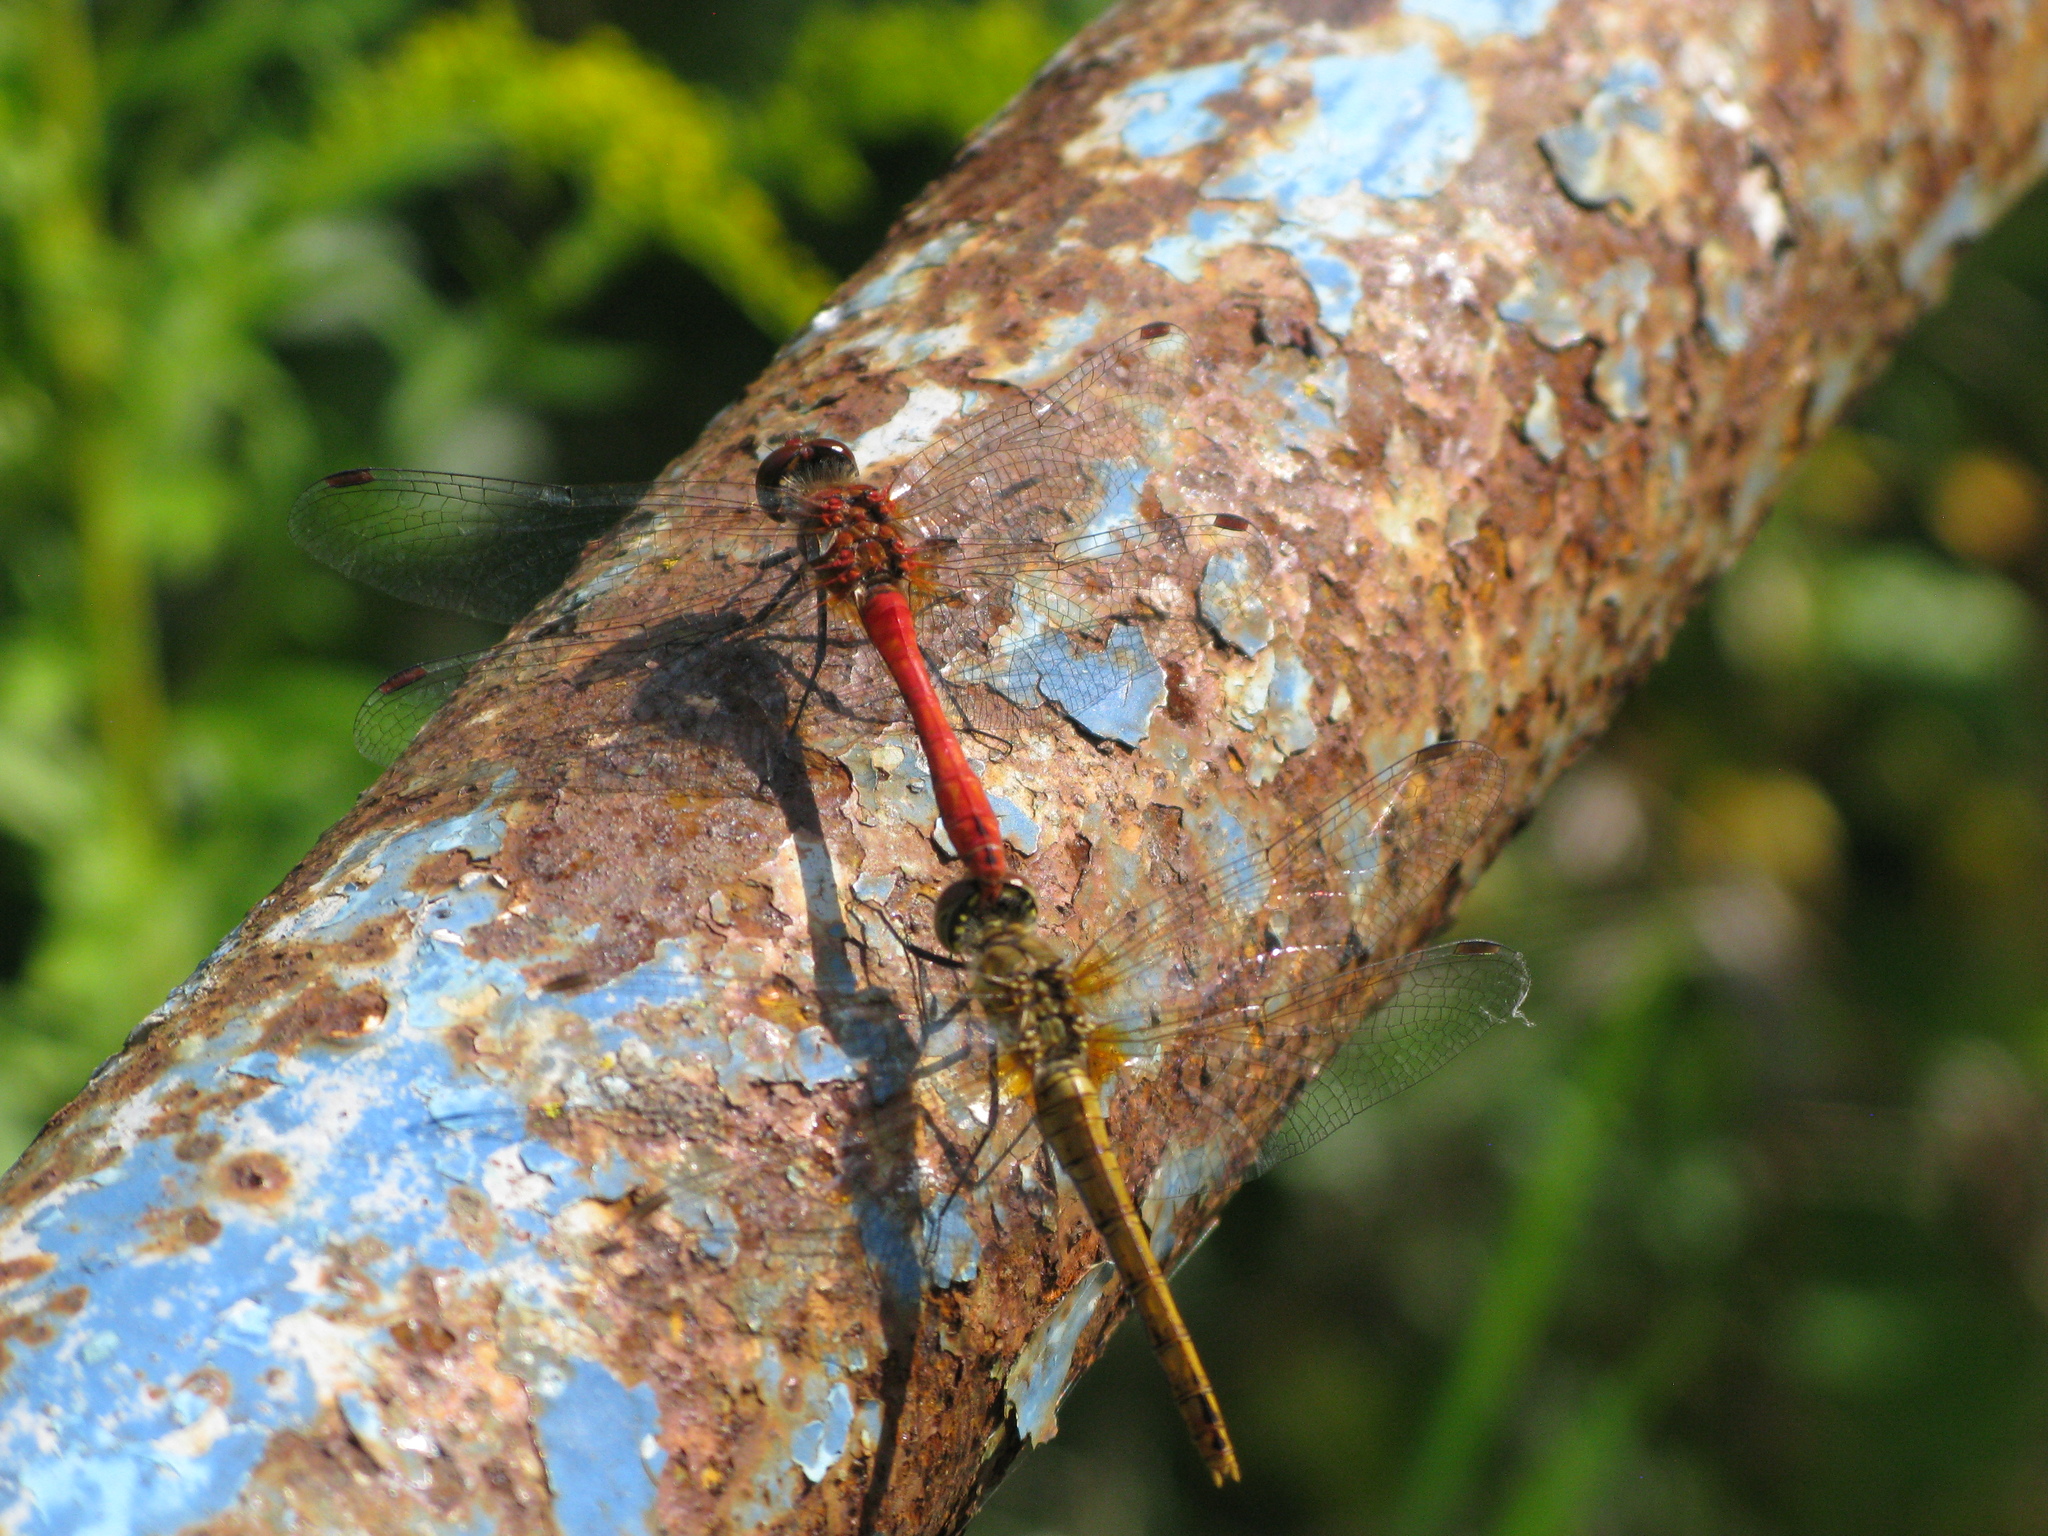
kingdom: Animalia
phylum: Arthropoda
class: Insecta
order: Odonata
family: Libellulidae
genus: Sympetrum
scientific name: Sympetrum sanguineum
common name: Ruddy darter
